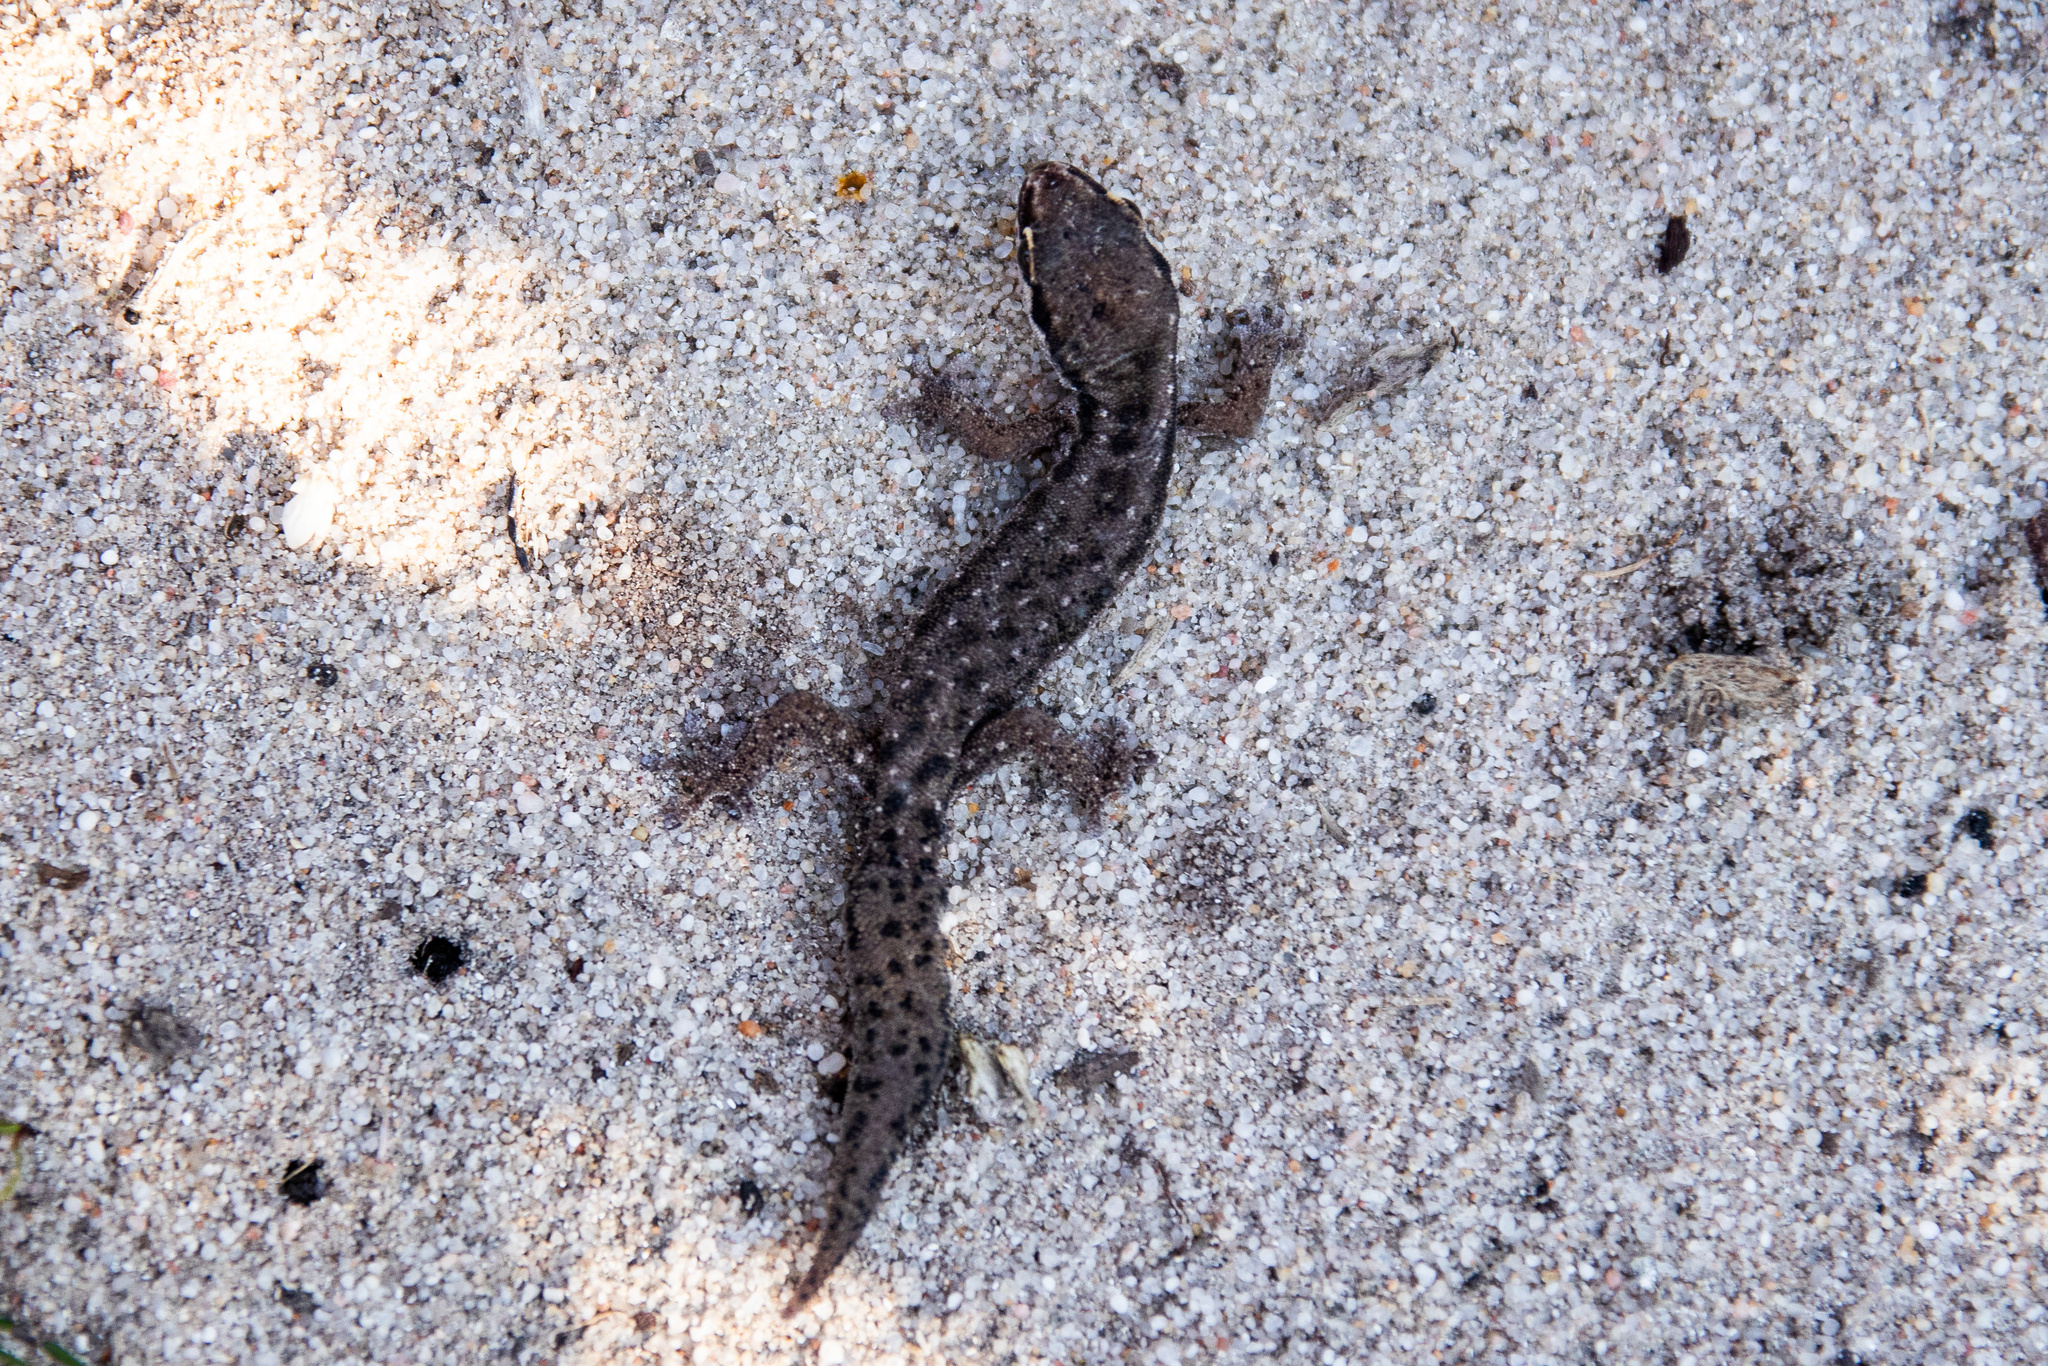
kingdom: Animalia
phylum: Chordata
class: Squamata
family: Gekkonidae
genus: Pachydactylus
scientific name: Pachydactylus geitje
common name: Ocellated thick-toed gecko
